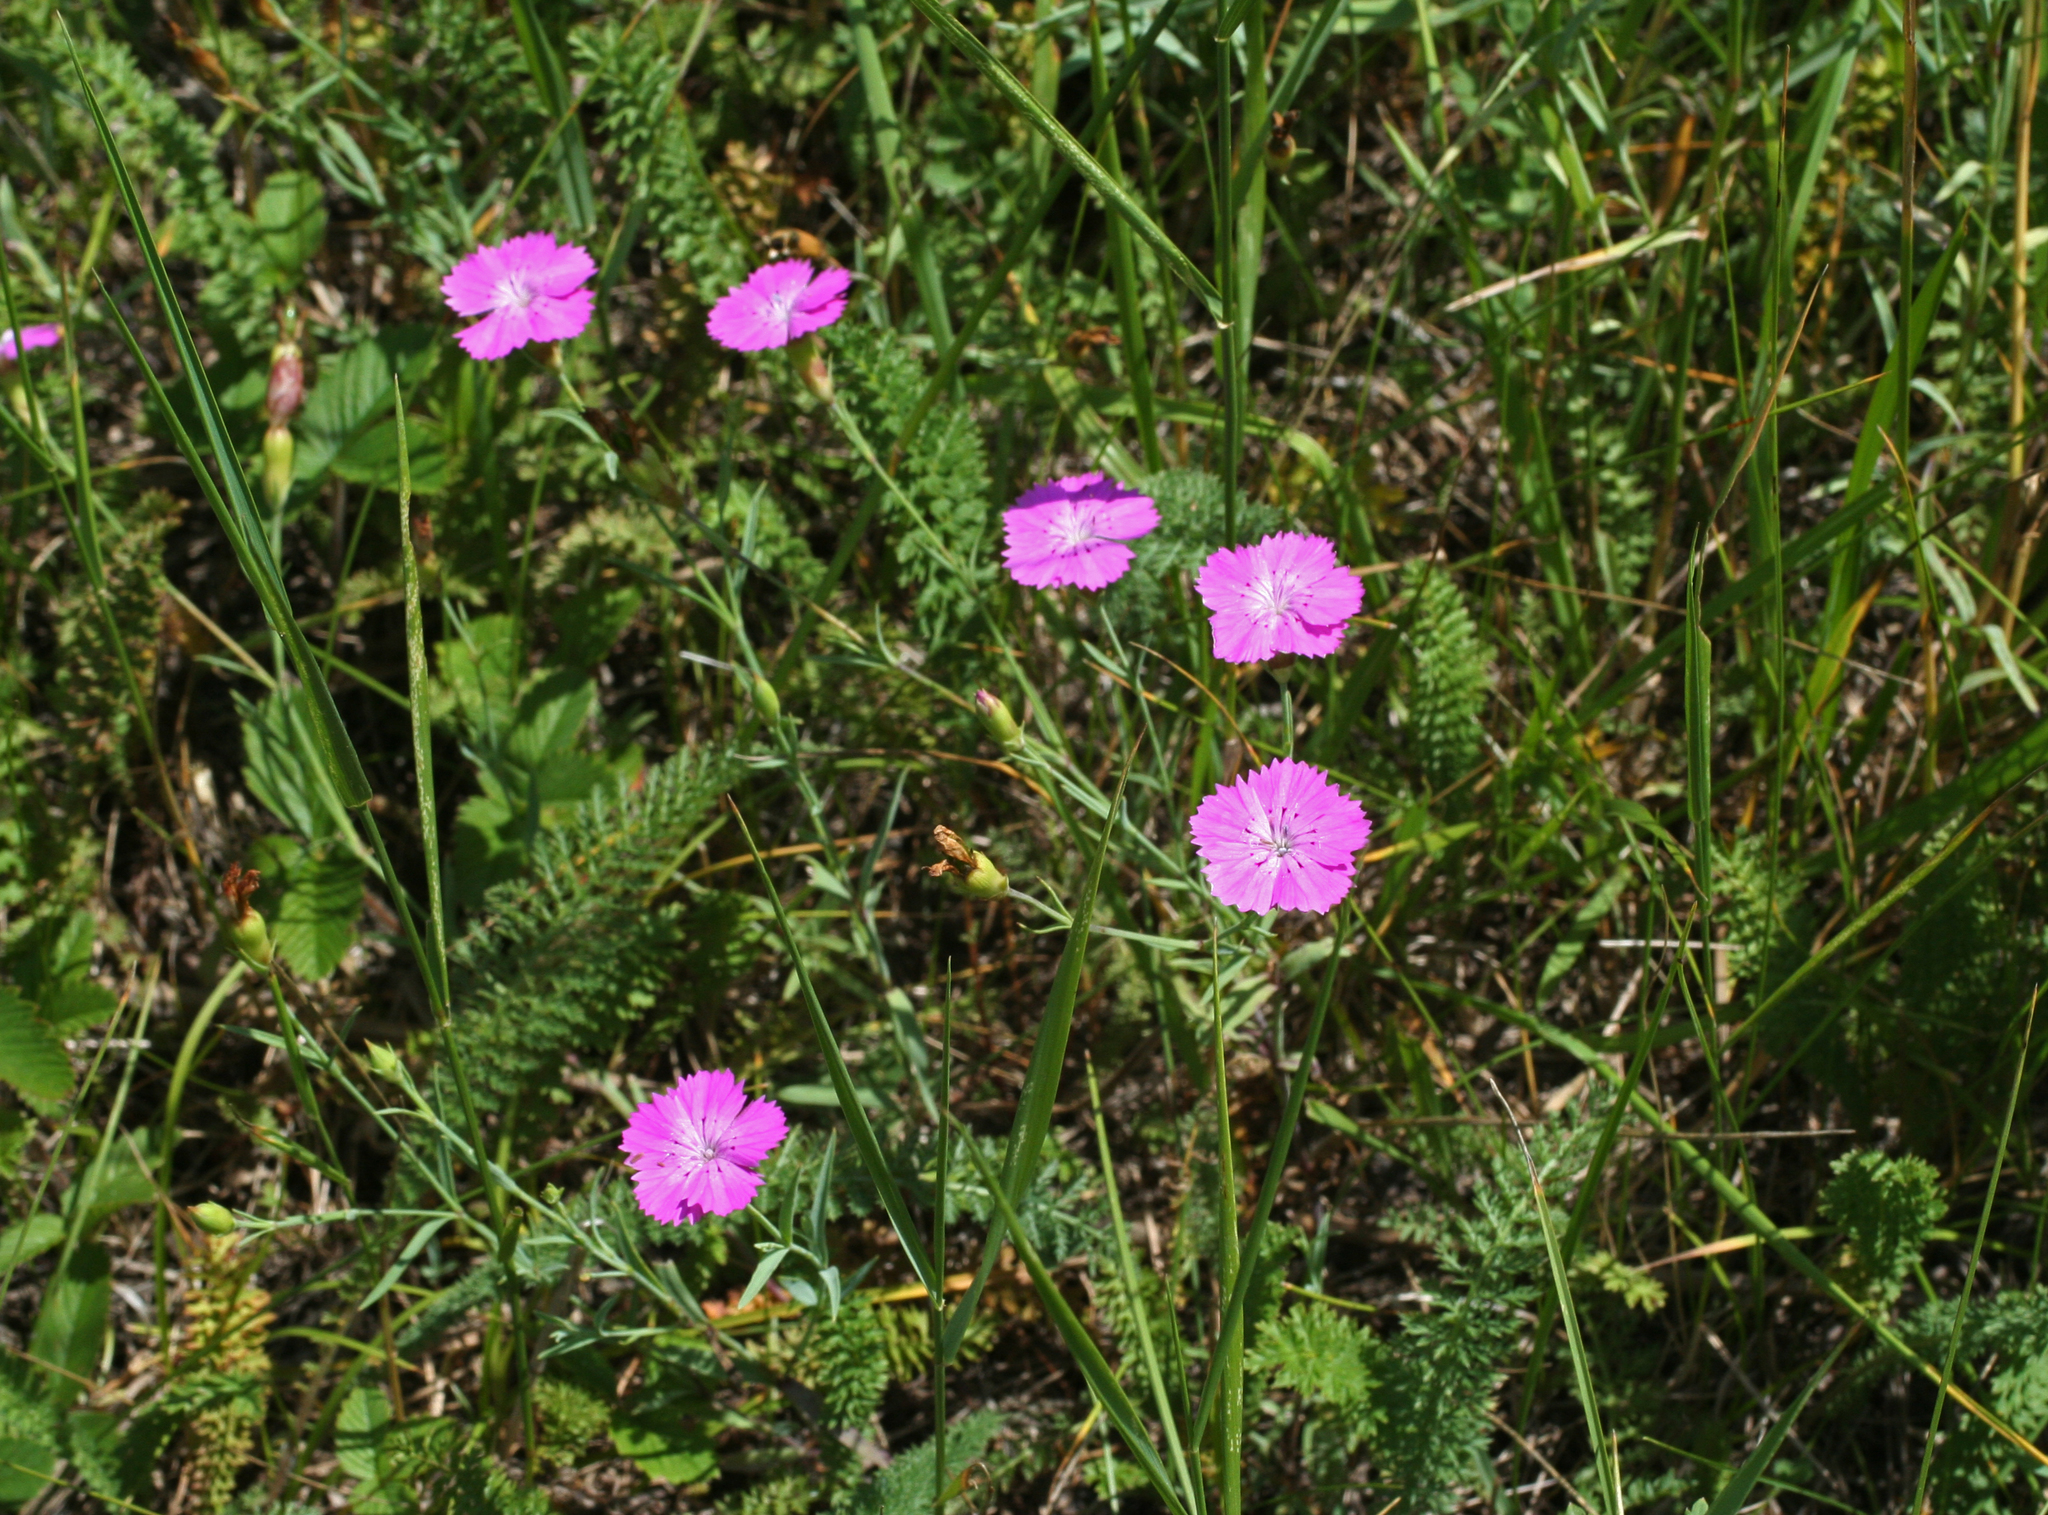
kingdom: Plantae
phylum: Tracheophyta
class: Magnoliopsida
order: Caryophyllales
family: Caryophyllaceae
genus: Dianthus
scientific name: Dianthus chinensis
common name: Rainbow pink
